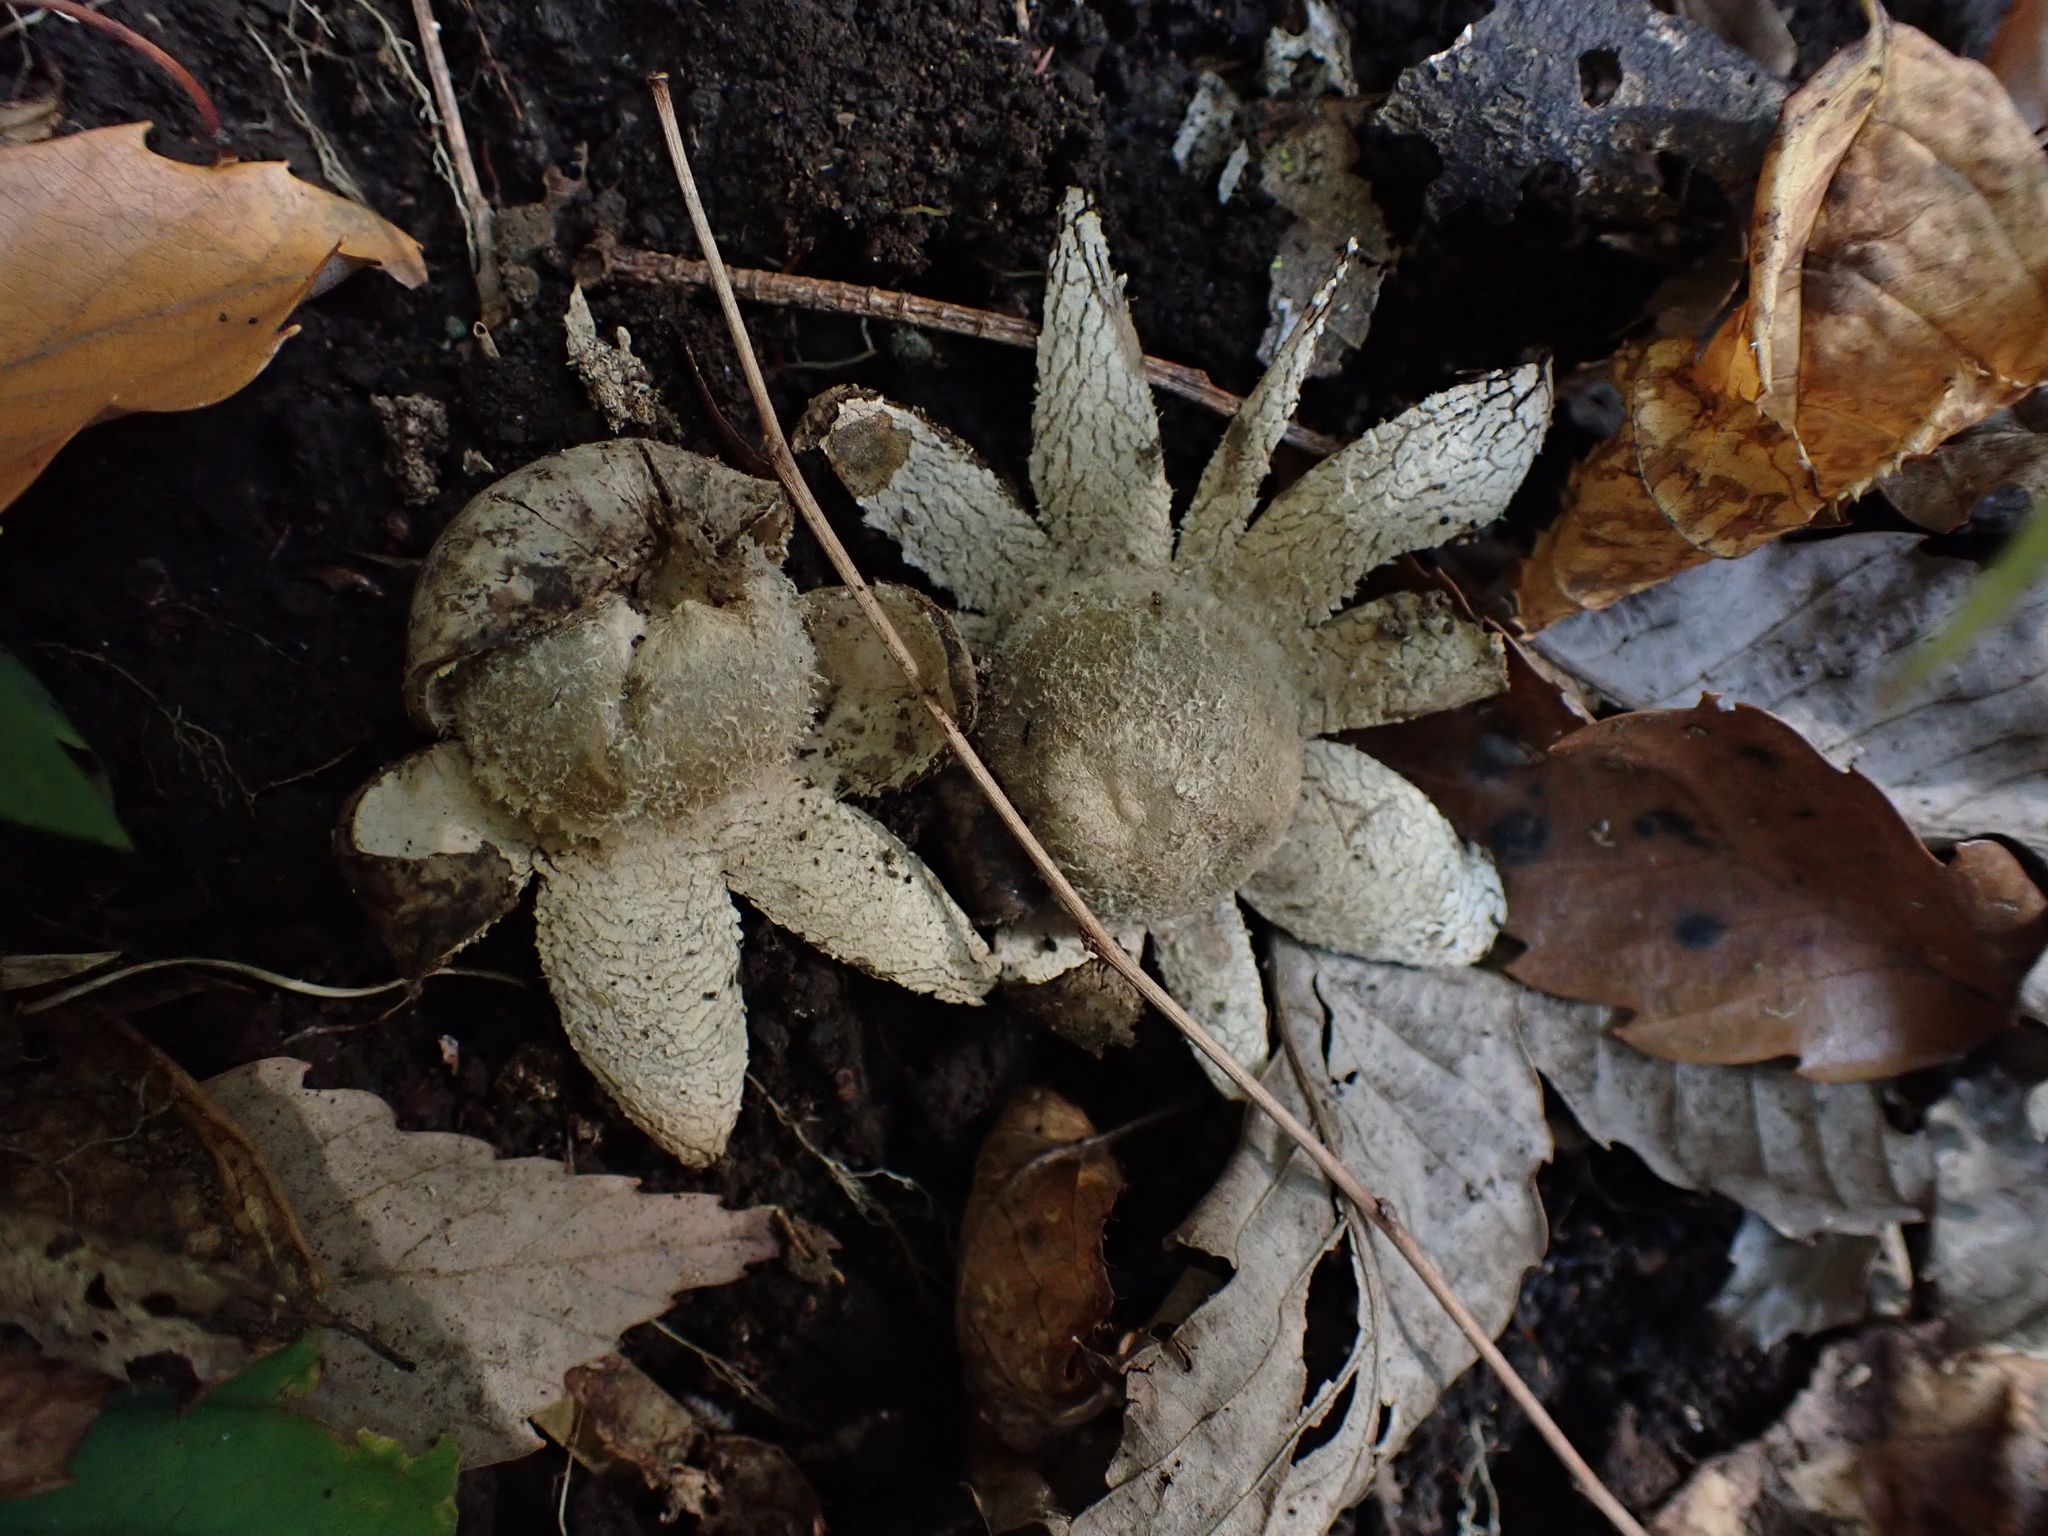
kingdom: Fungi
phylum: Basidiomycota
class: Agaricomycetes
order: Boletales
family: Diplocystidiaceae
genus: Astraeus
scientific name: Astraeus hygrometricus
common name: Barometer earthstar
